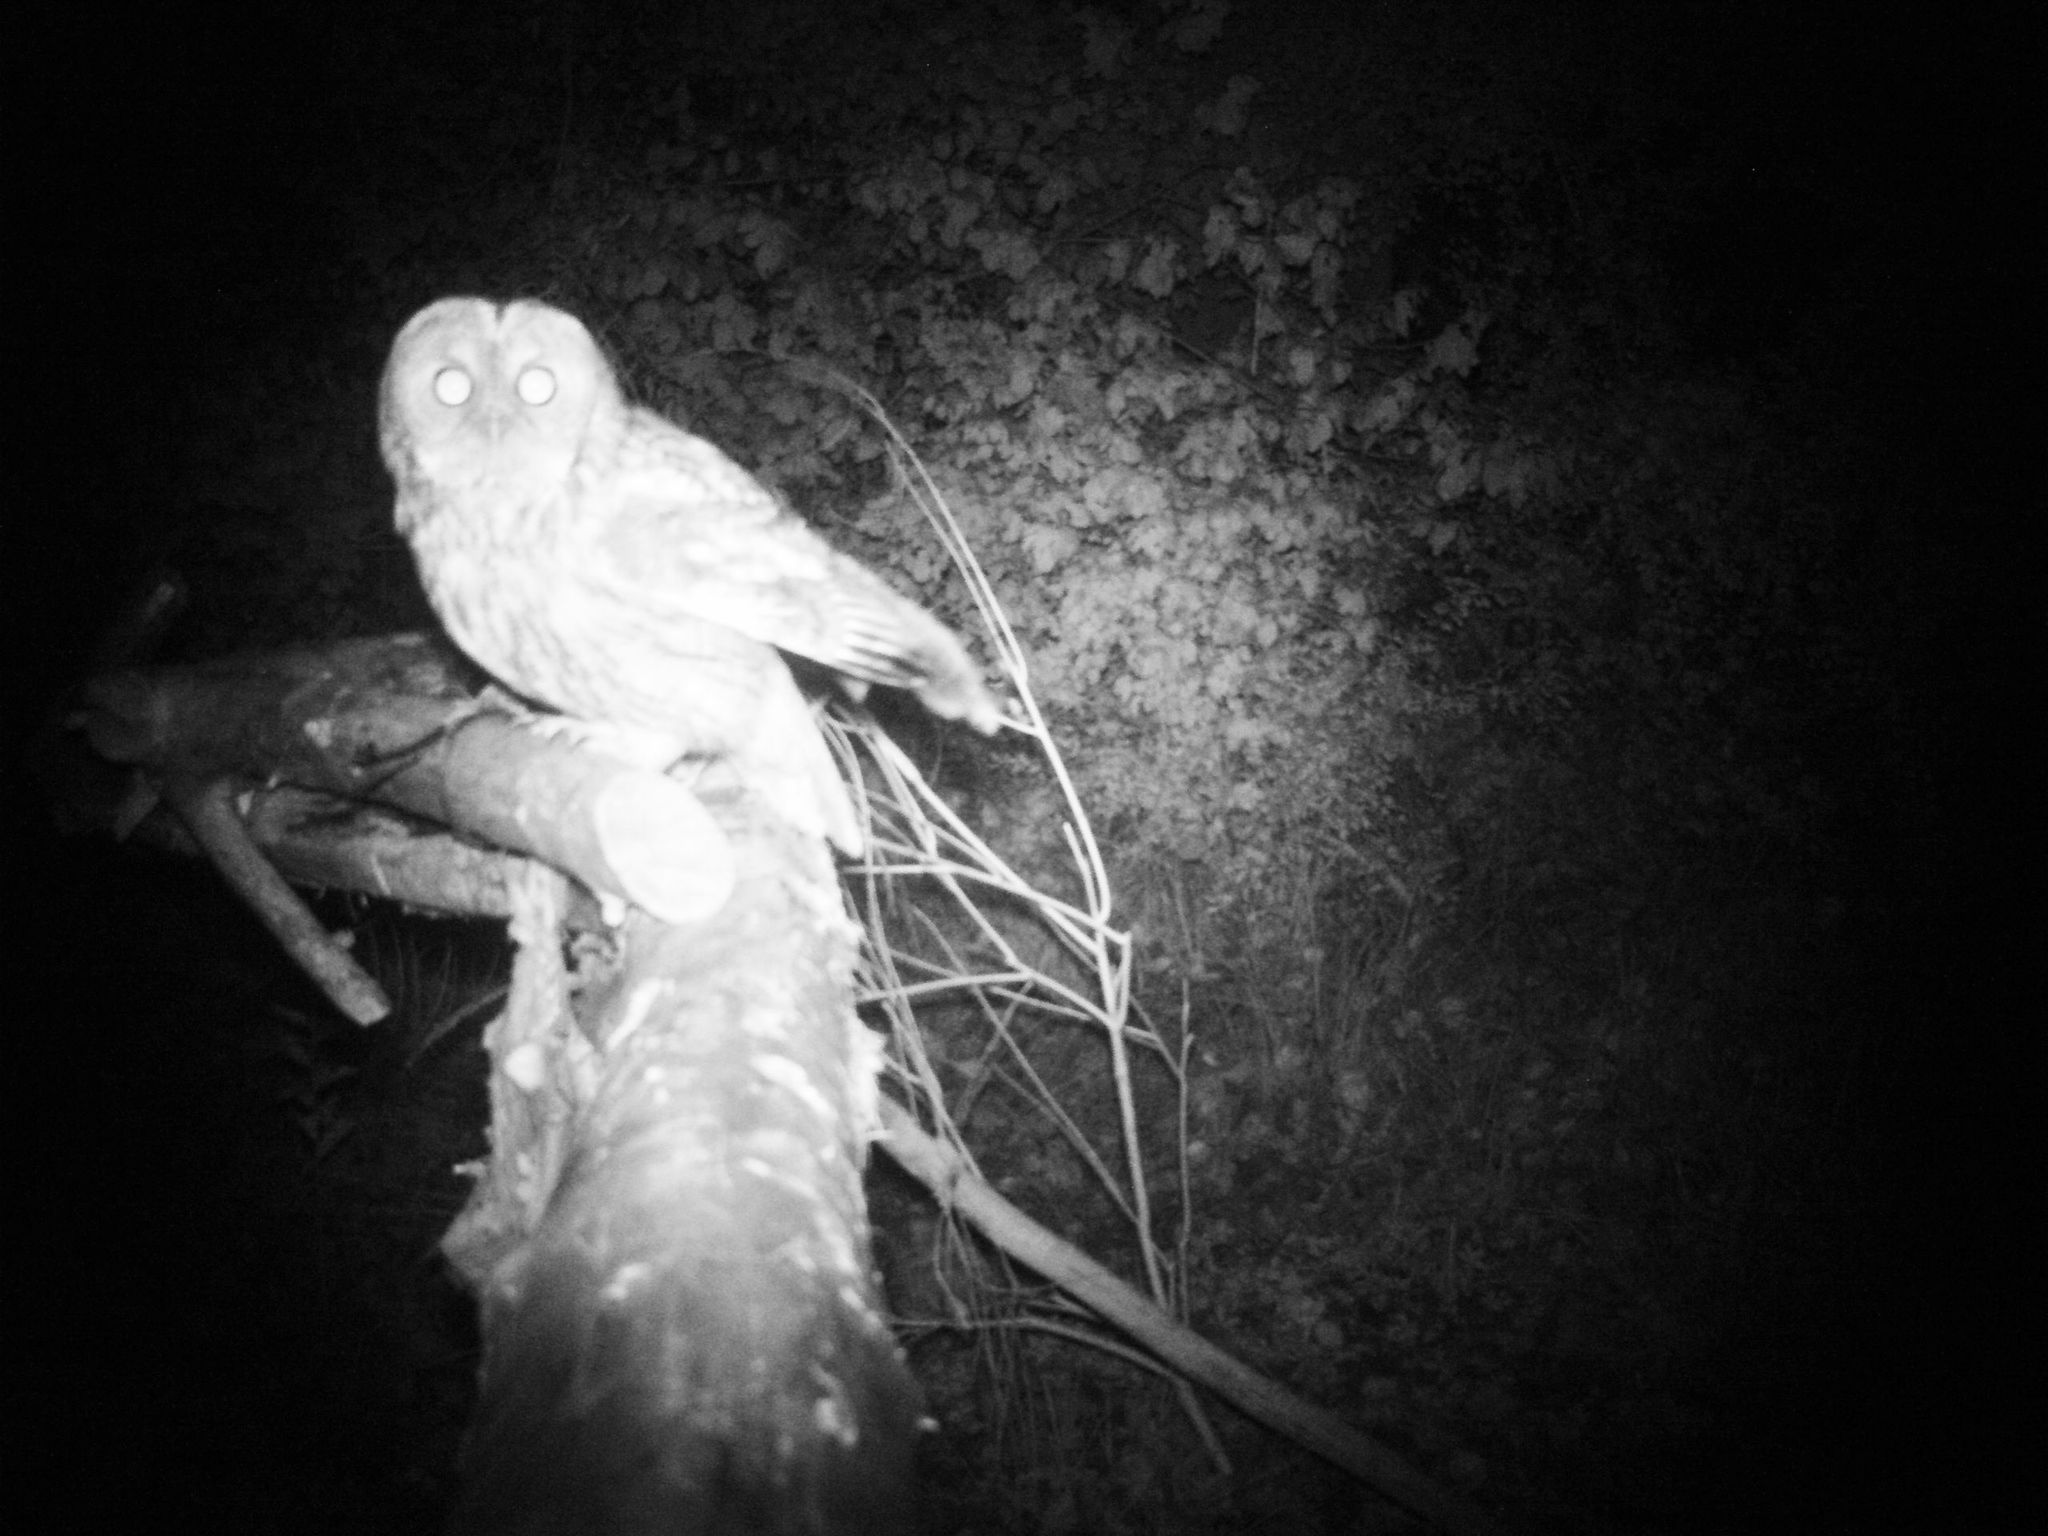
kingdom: Animalia
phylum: Chordata
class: Aves
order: Strigiformes
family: Strigidae
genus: Strix
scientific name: Strix aluco
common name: Tawny owl
